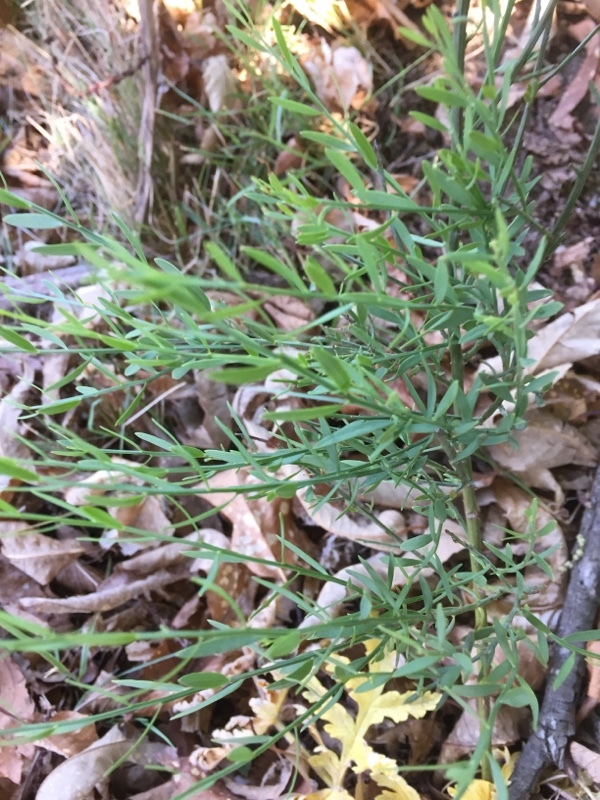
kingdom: Plantae
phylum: Tracheophyta
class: Magnoliopsida
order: Santalales
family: Santalaceae
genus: Osyris
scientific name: Osyris alba
